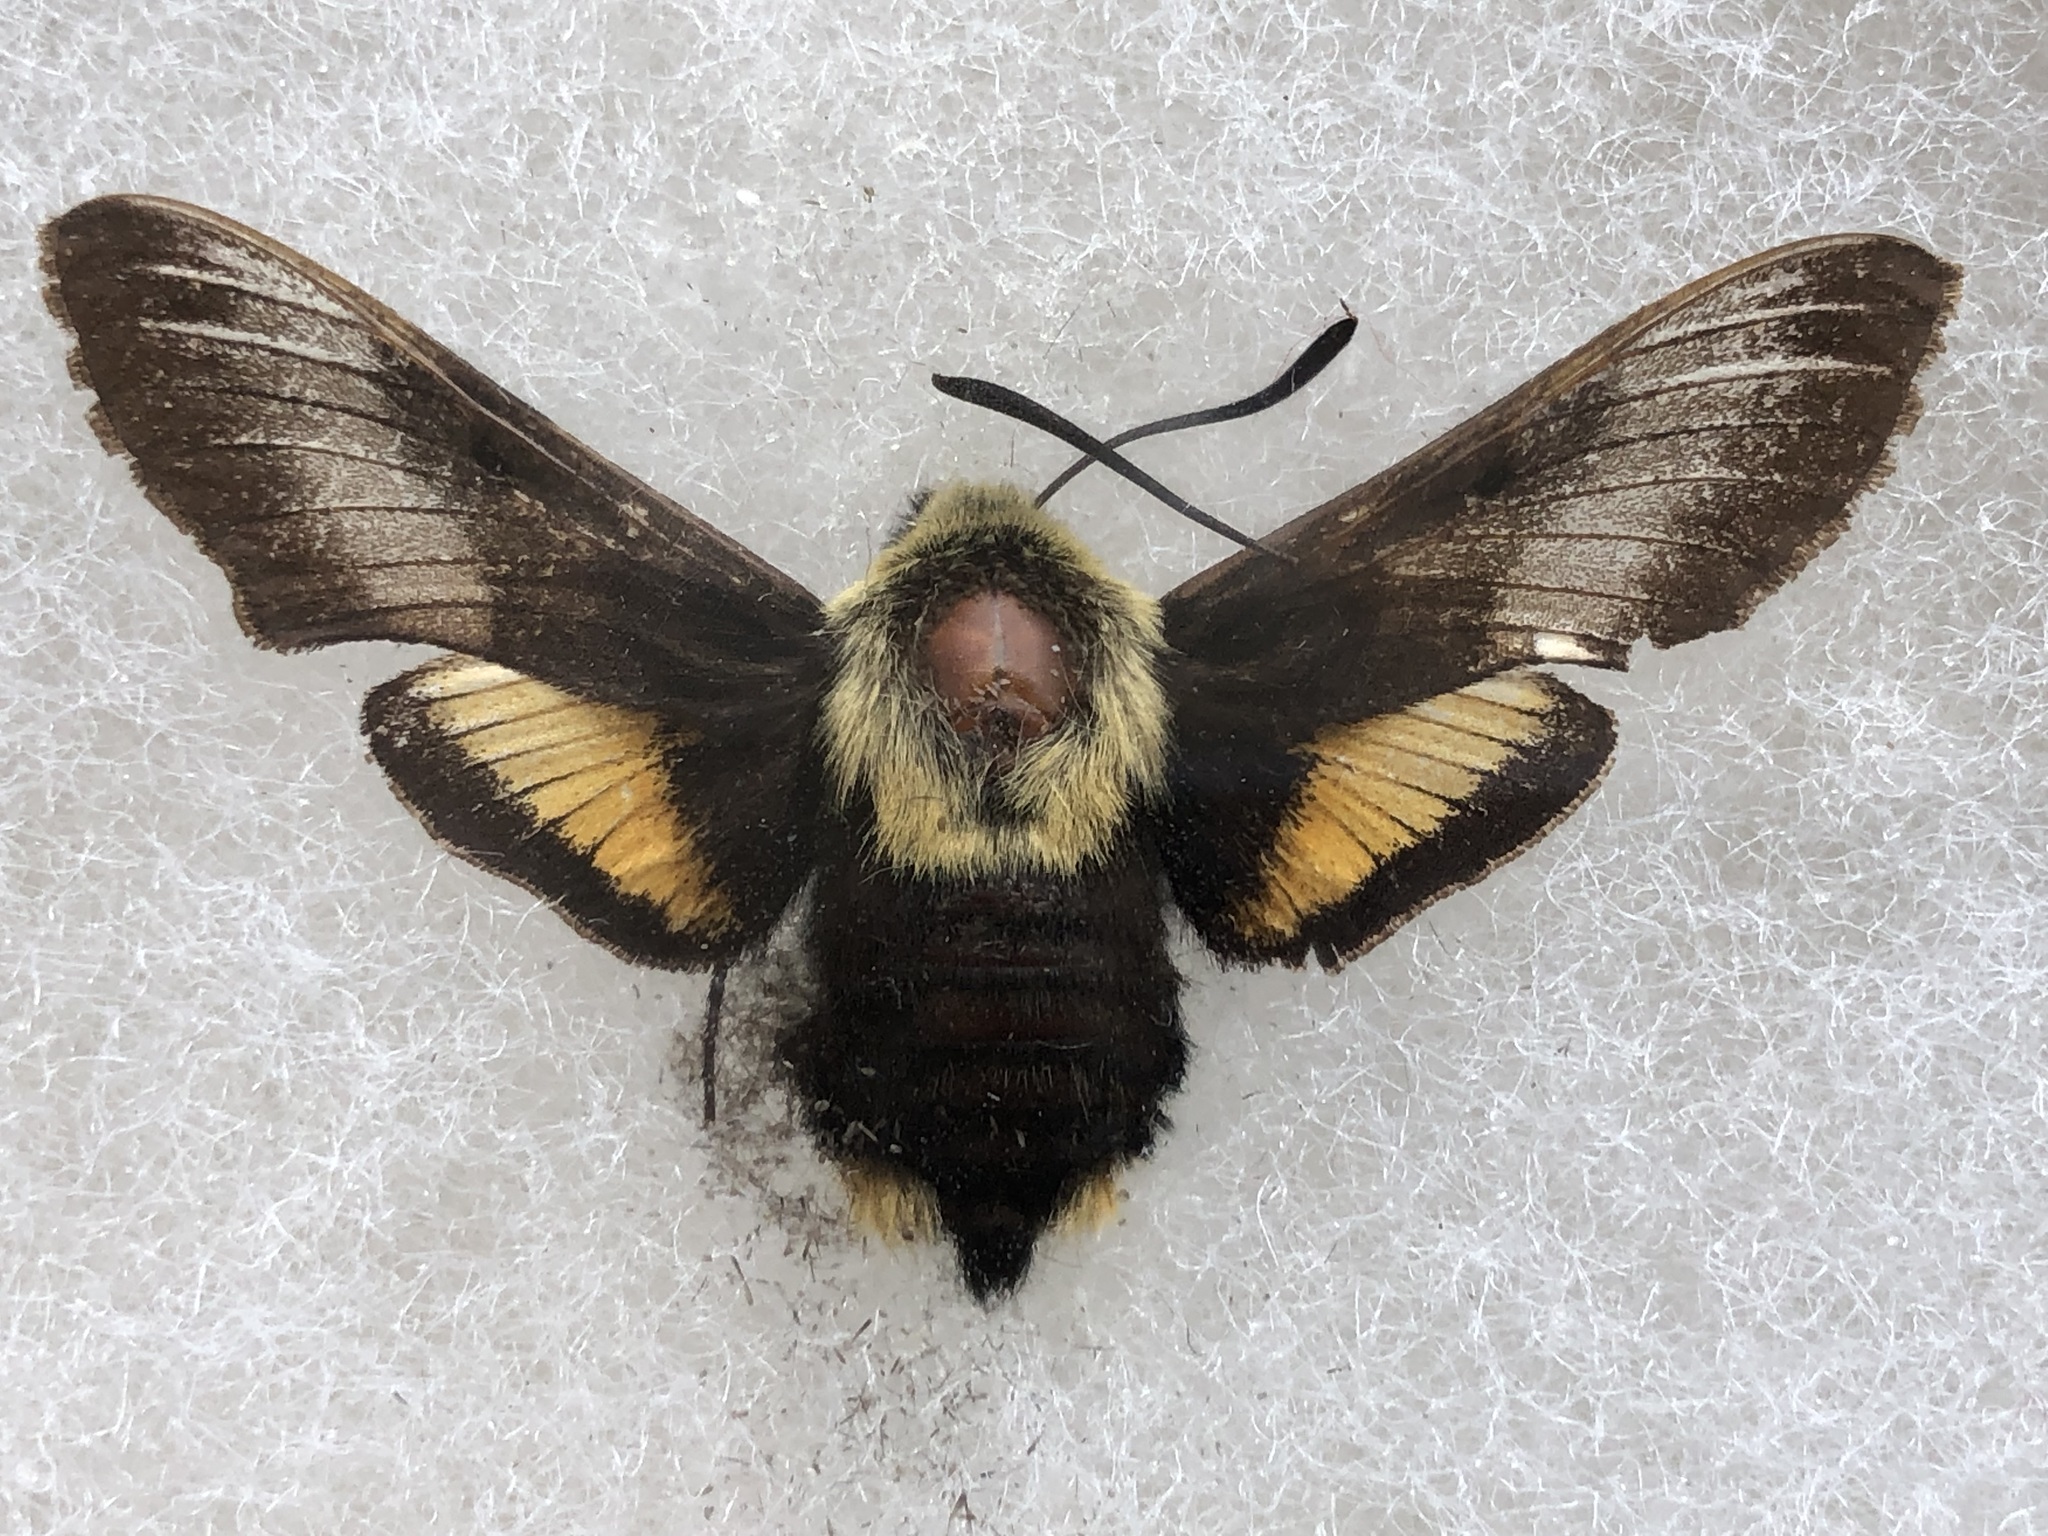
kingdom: Animalia
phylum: Arthropoda
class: Insecta
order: Lepidoptera
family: Sphingidae
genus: Proserpinus
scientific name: Proserpinus flavofasciata
